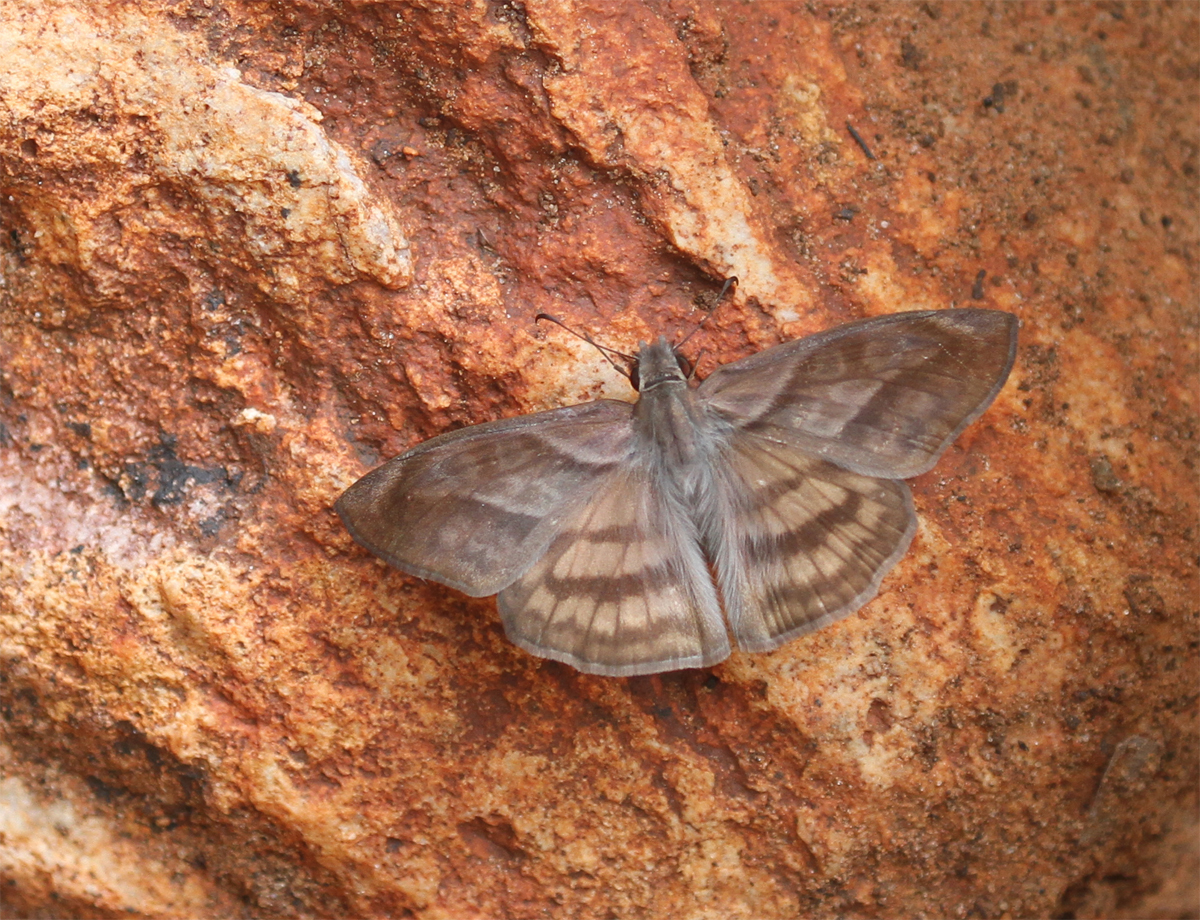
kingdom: Animalia
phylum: Arthropoda
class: Insecta
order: Lepidoptera
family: Hesperiidae
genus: Timochares
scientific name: Timochares trifasciata
